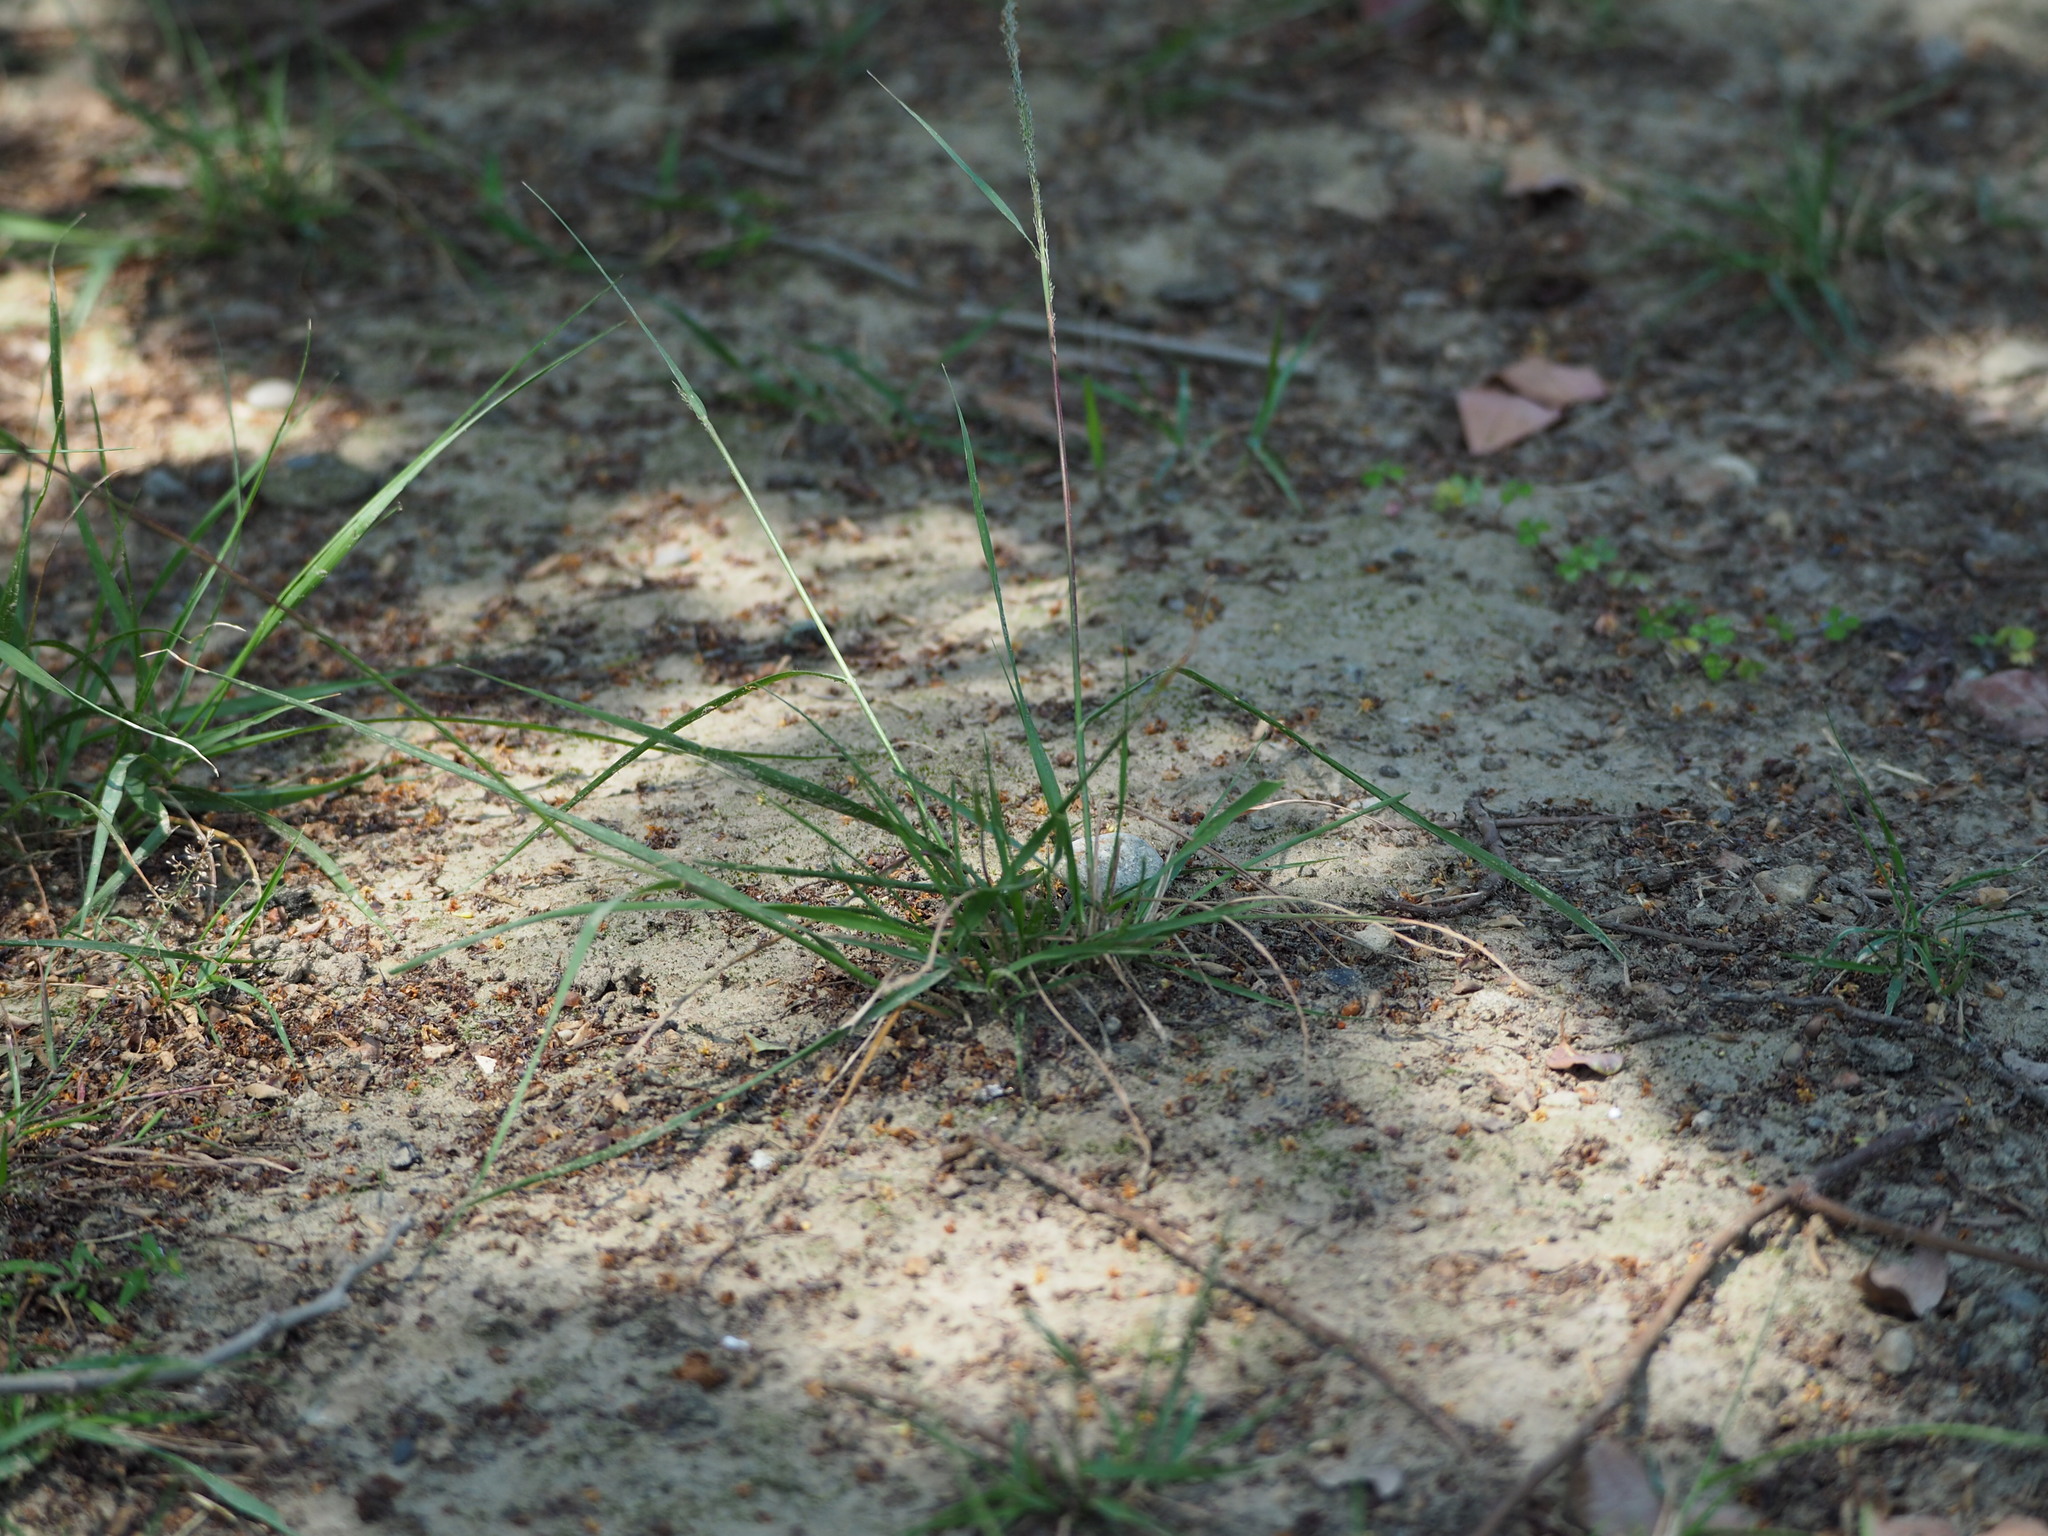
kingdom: Plantae
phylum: Tracheophyta
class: Liliopsida
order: Poales
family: Poaceae
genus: Sporobolus
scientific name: Sporobolus indicus
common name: Smut grass
